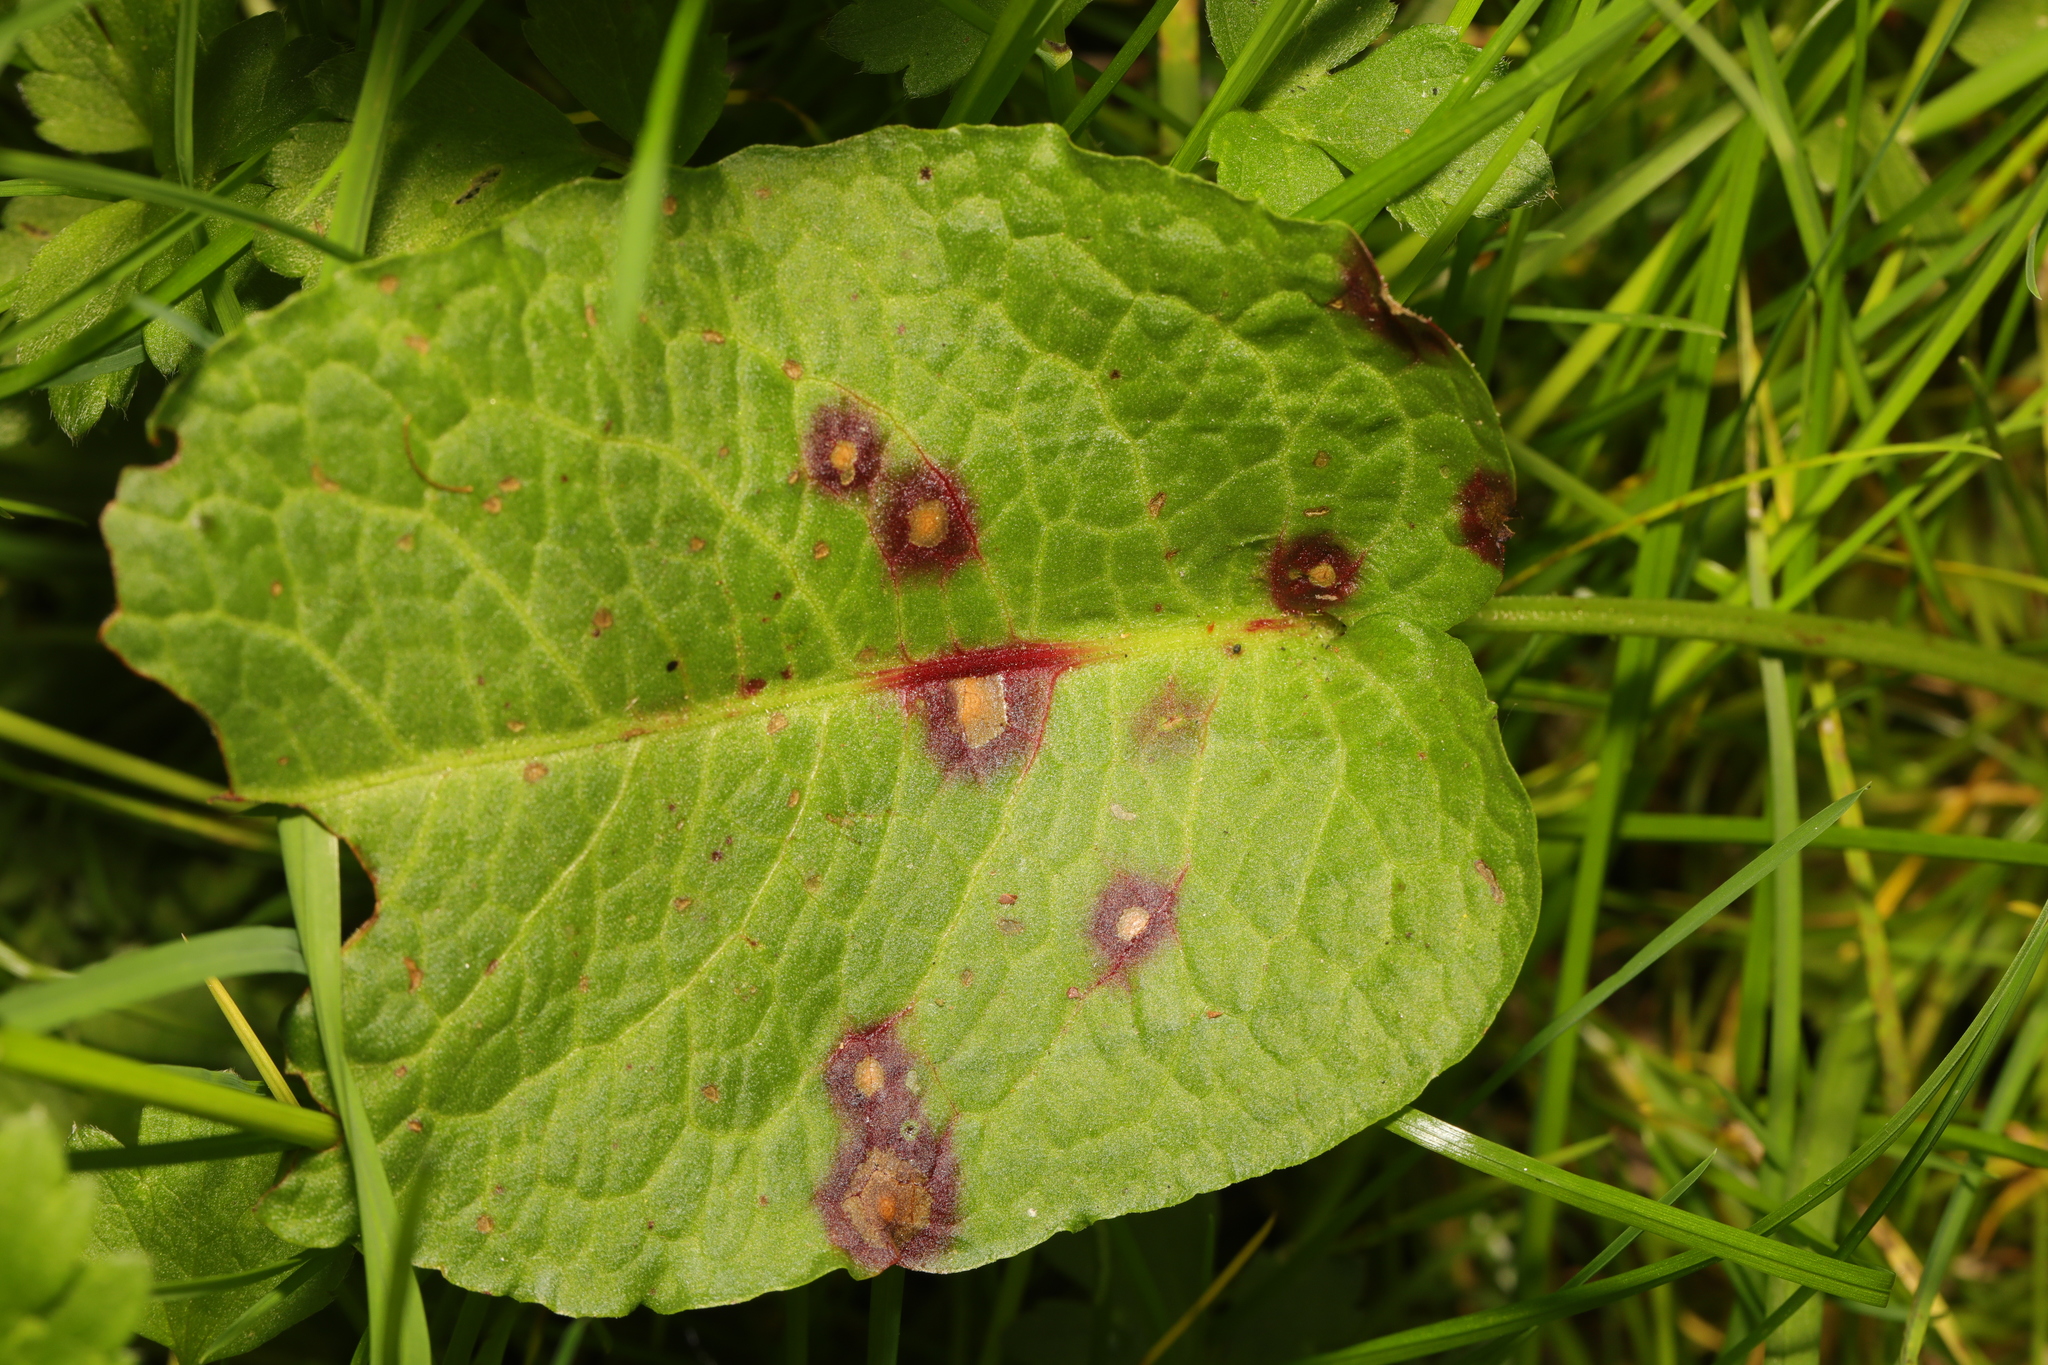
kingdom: Plantae
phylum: Tracheophyta
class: Magnoliopsida
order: Caryophyllales
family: Polygonaceae
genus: Rumex
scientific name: Rumex obtusifolius
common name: Bitter dock
